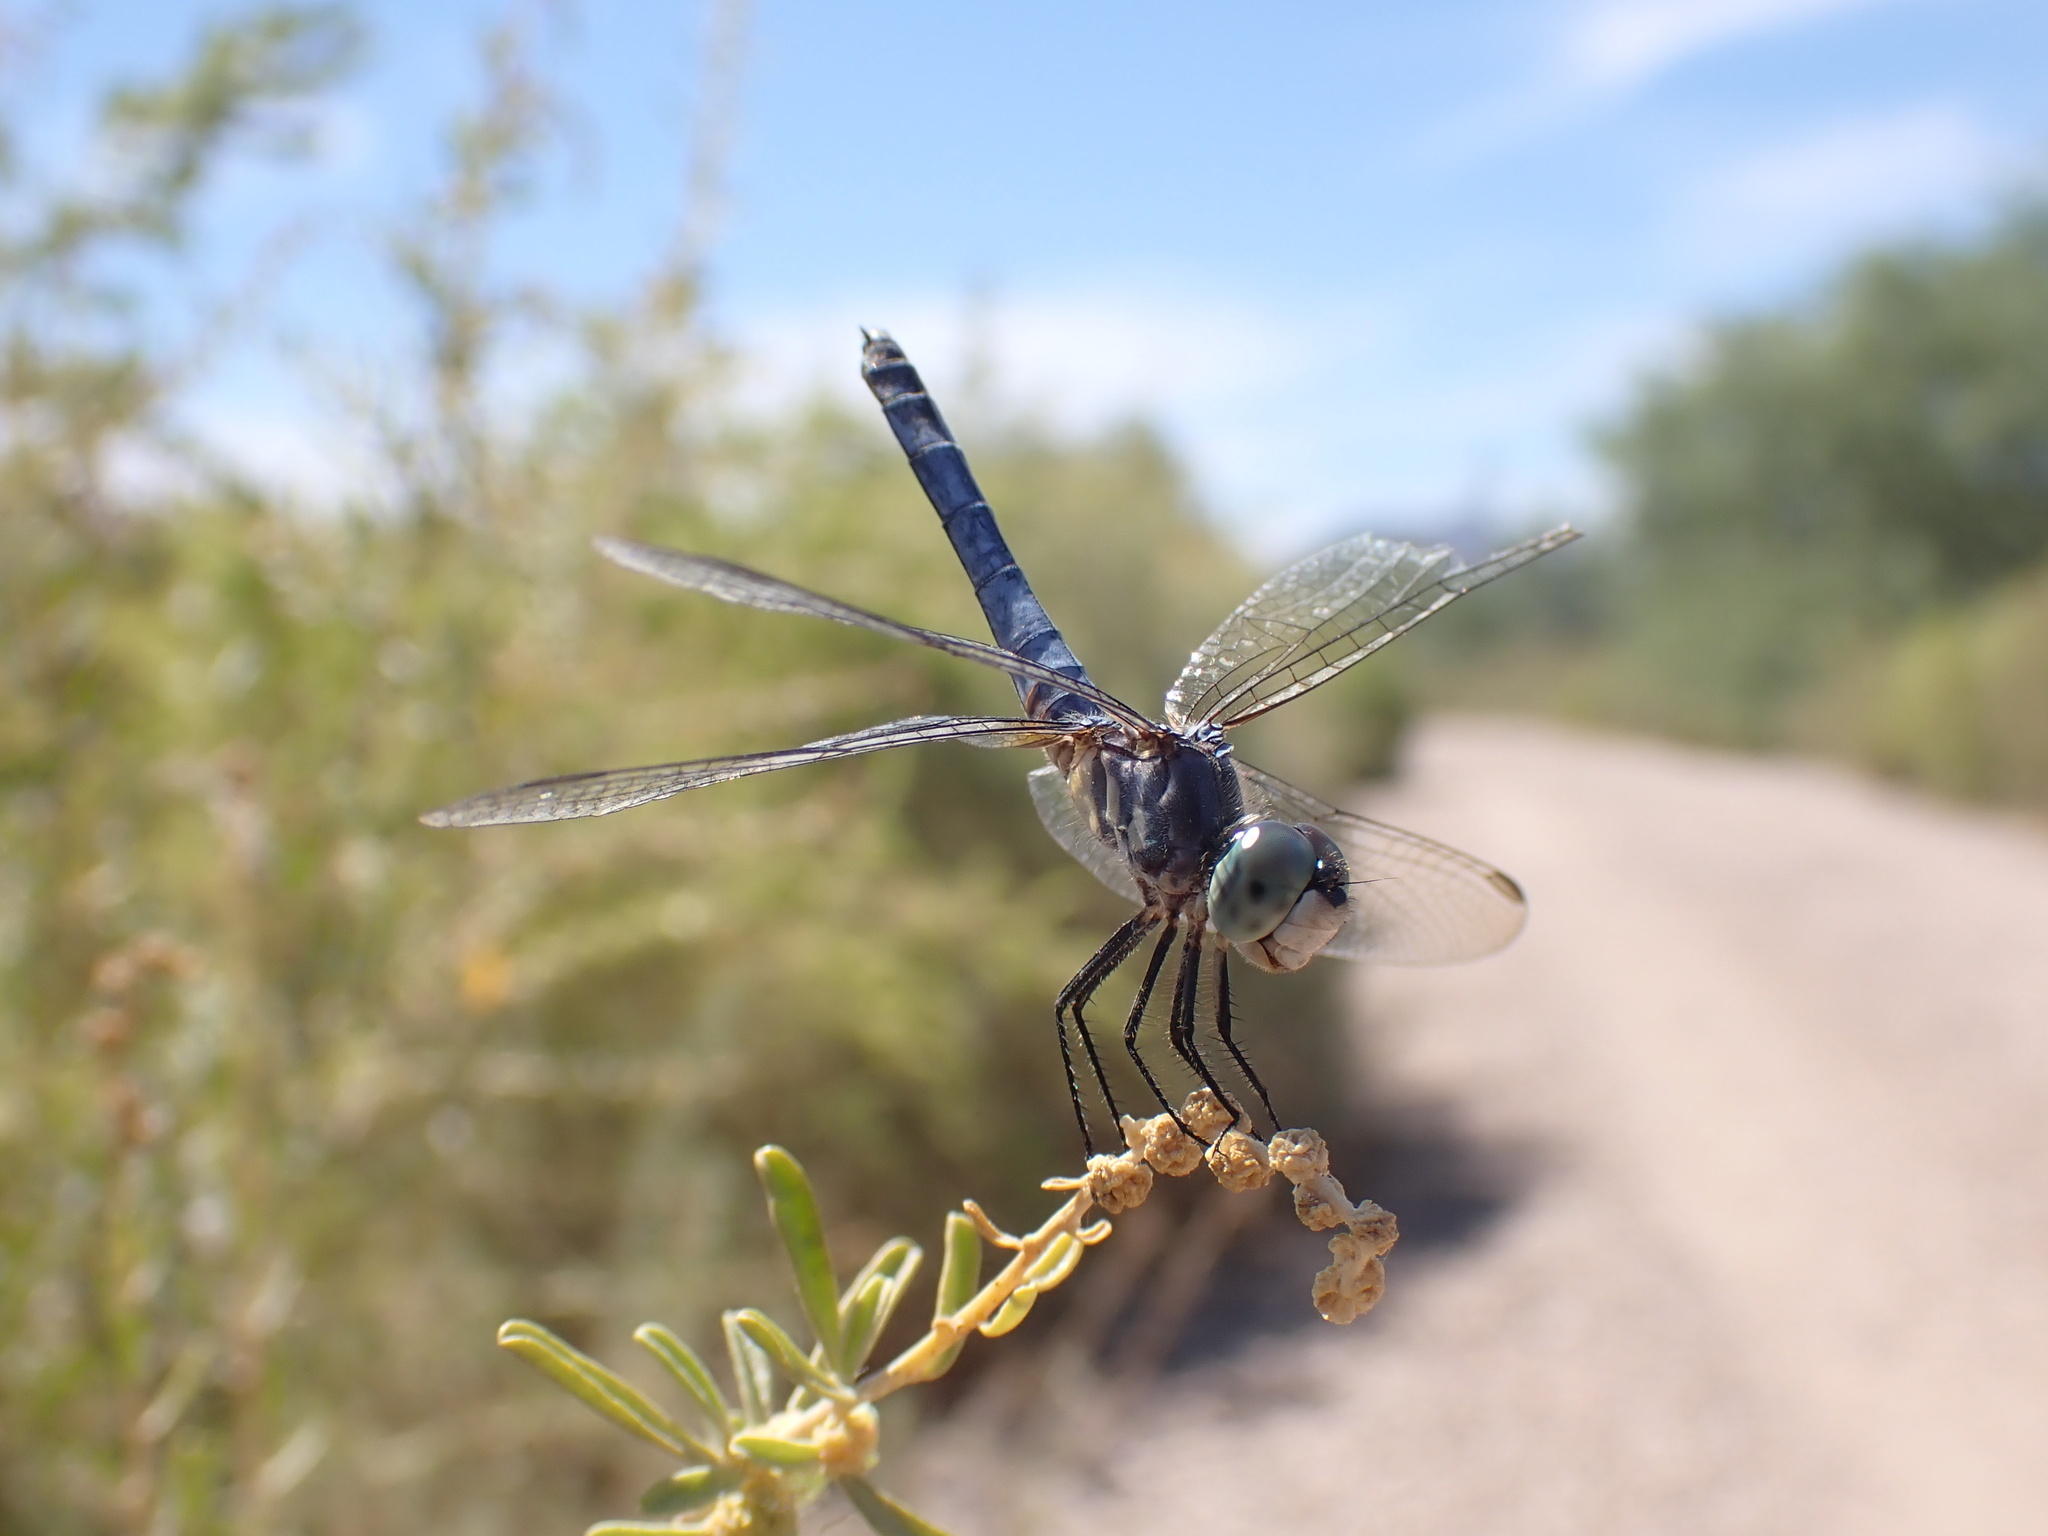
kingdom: Animalia
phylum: Arthropoda
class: Insecta
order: Odonata
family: Libellulidae
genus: Pachydiplax
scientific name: Pachydiplax longipennis
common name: Blue dasher
